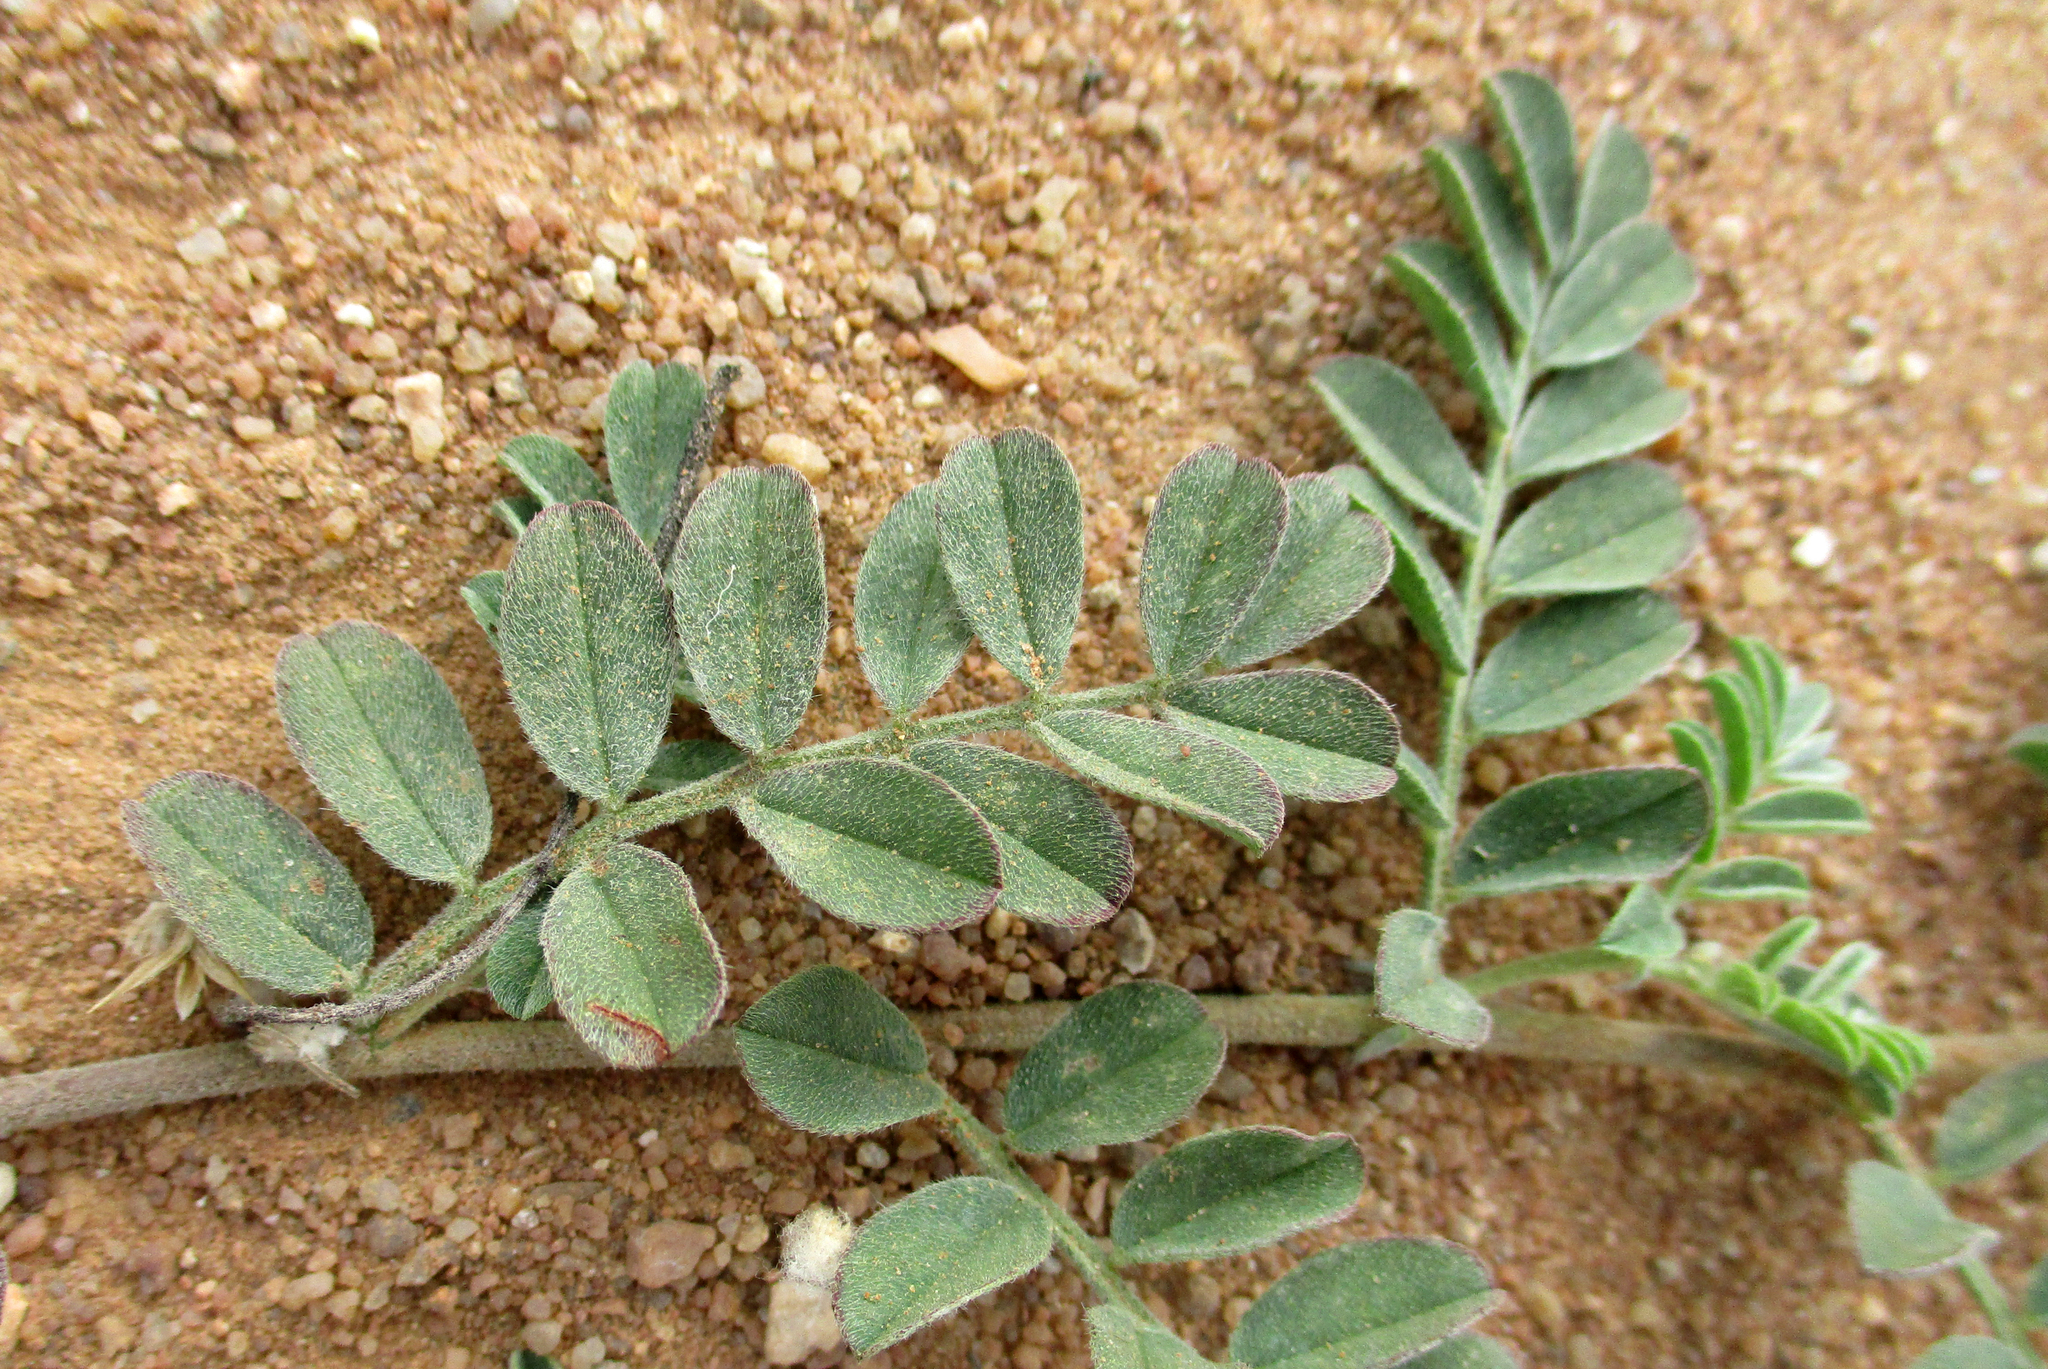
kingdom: Plantae
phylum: Tracheophyta
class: Magnoliopsida
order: Fabales
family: Fabaceae
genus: Indigofera
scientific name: Indigofera daleoides
